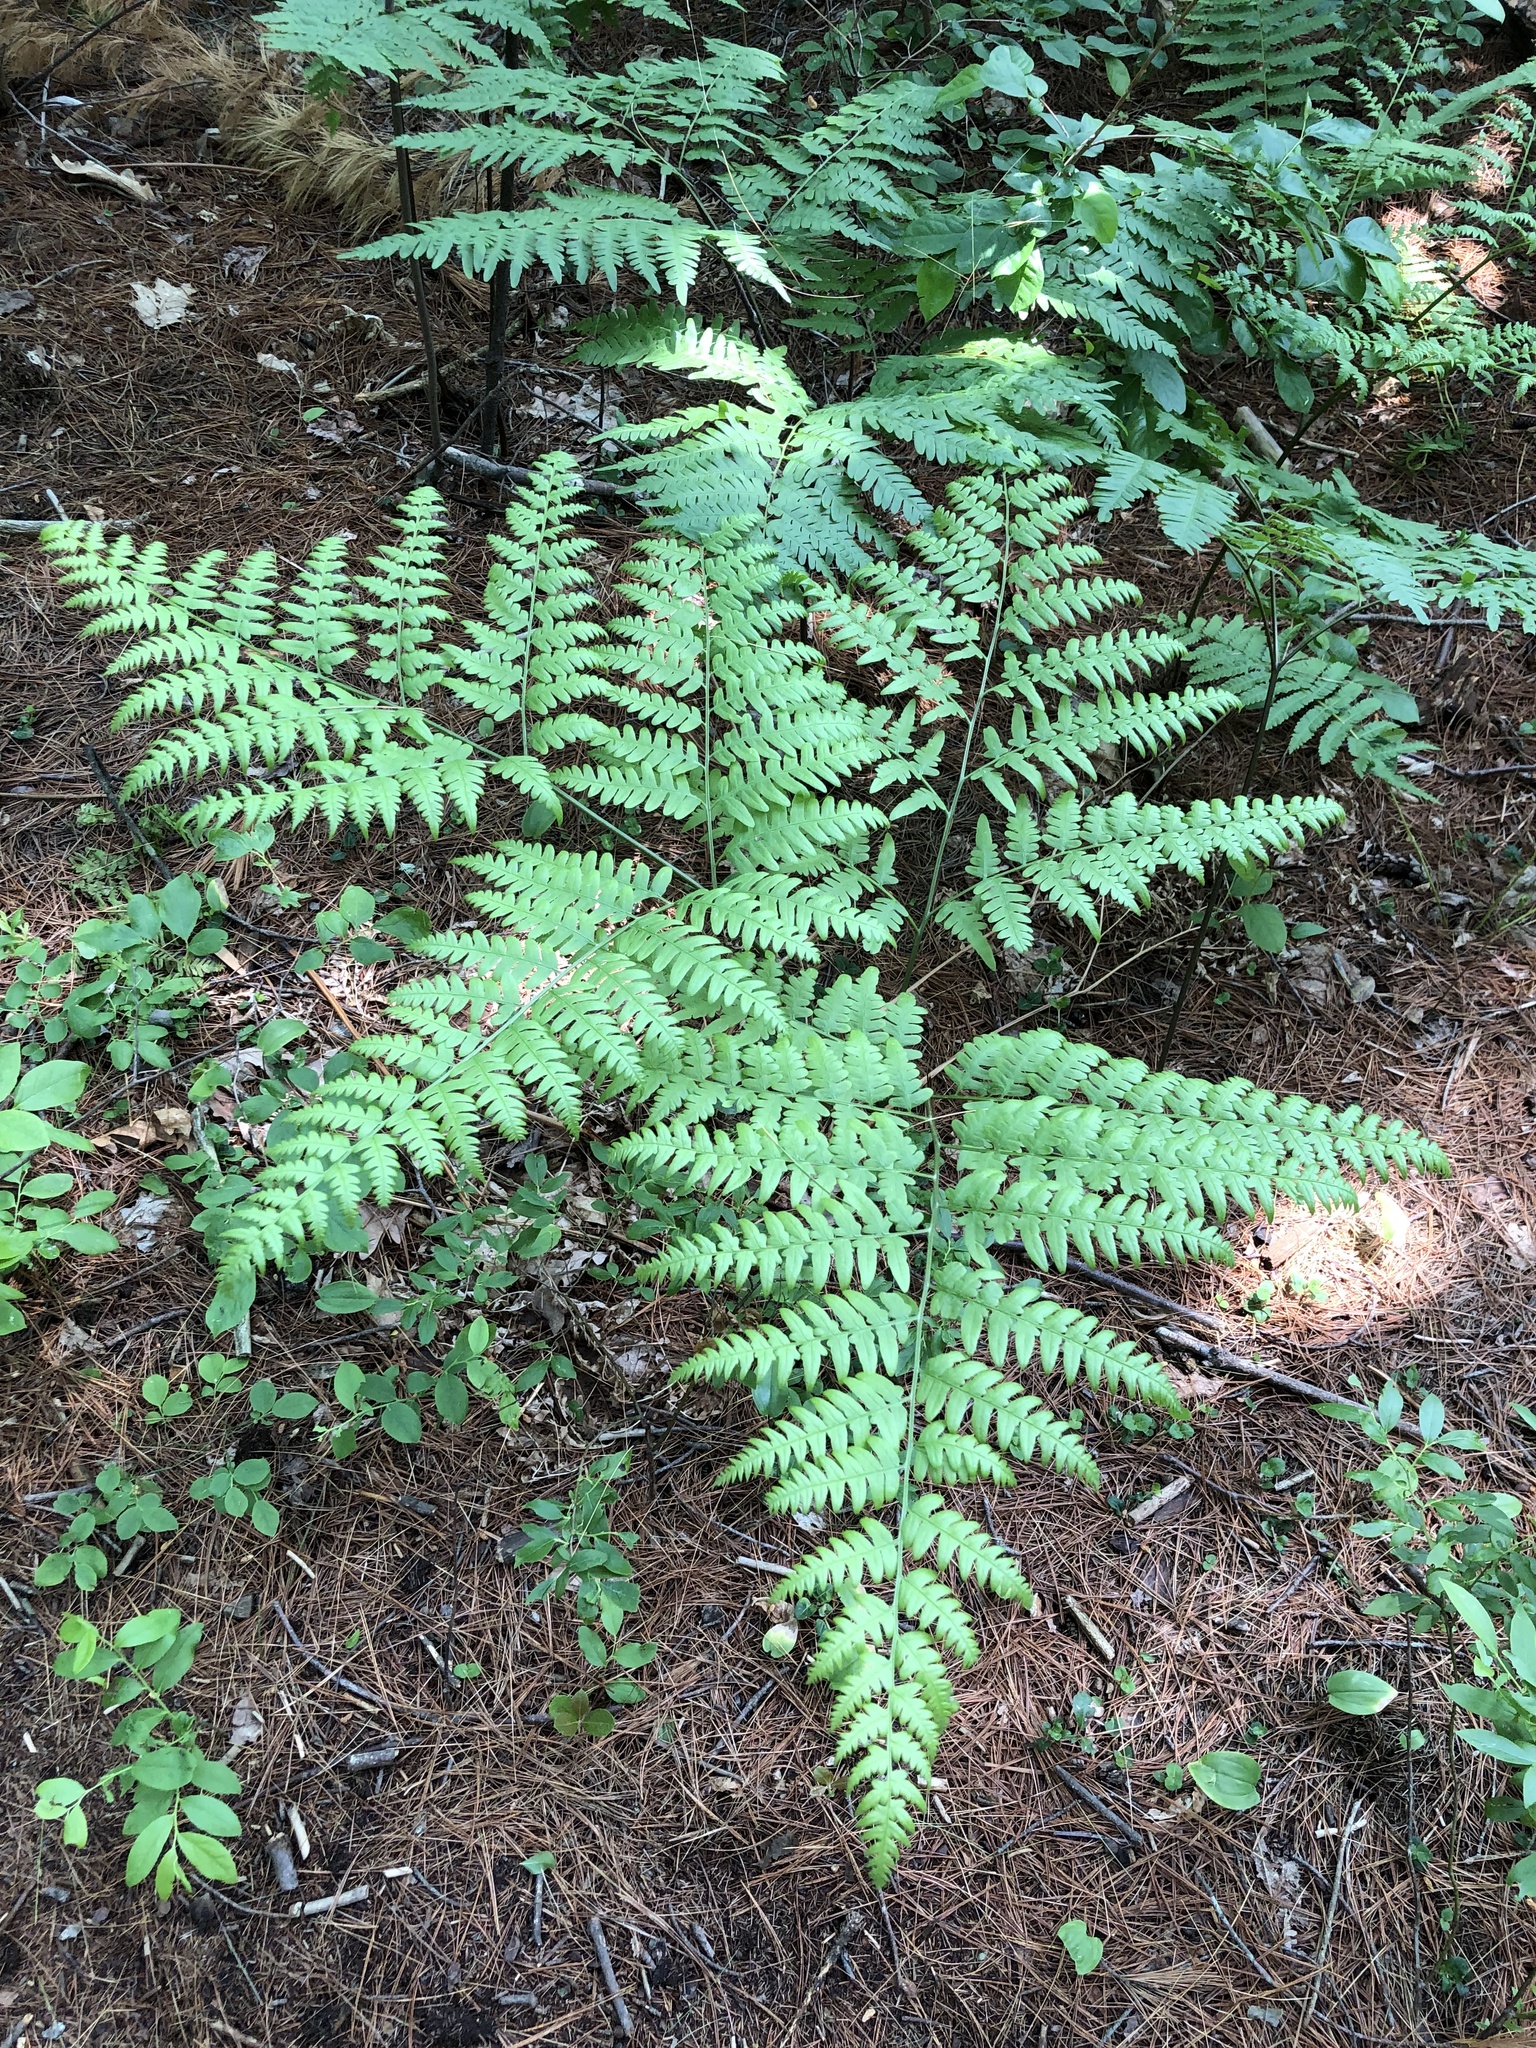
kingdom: Plantae
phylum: Tracheophyta
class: Polypodiopsida
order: Polypodiales
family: Dennstaedtiaceae
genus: Pteridium
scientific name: Pteridium aquilinum
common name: Bracken
